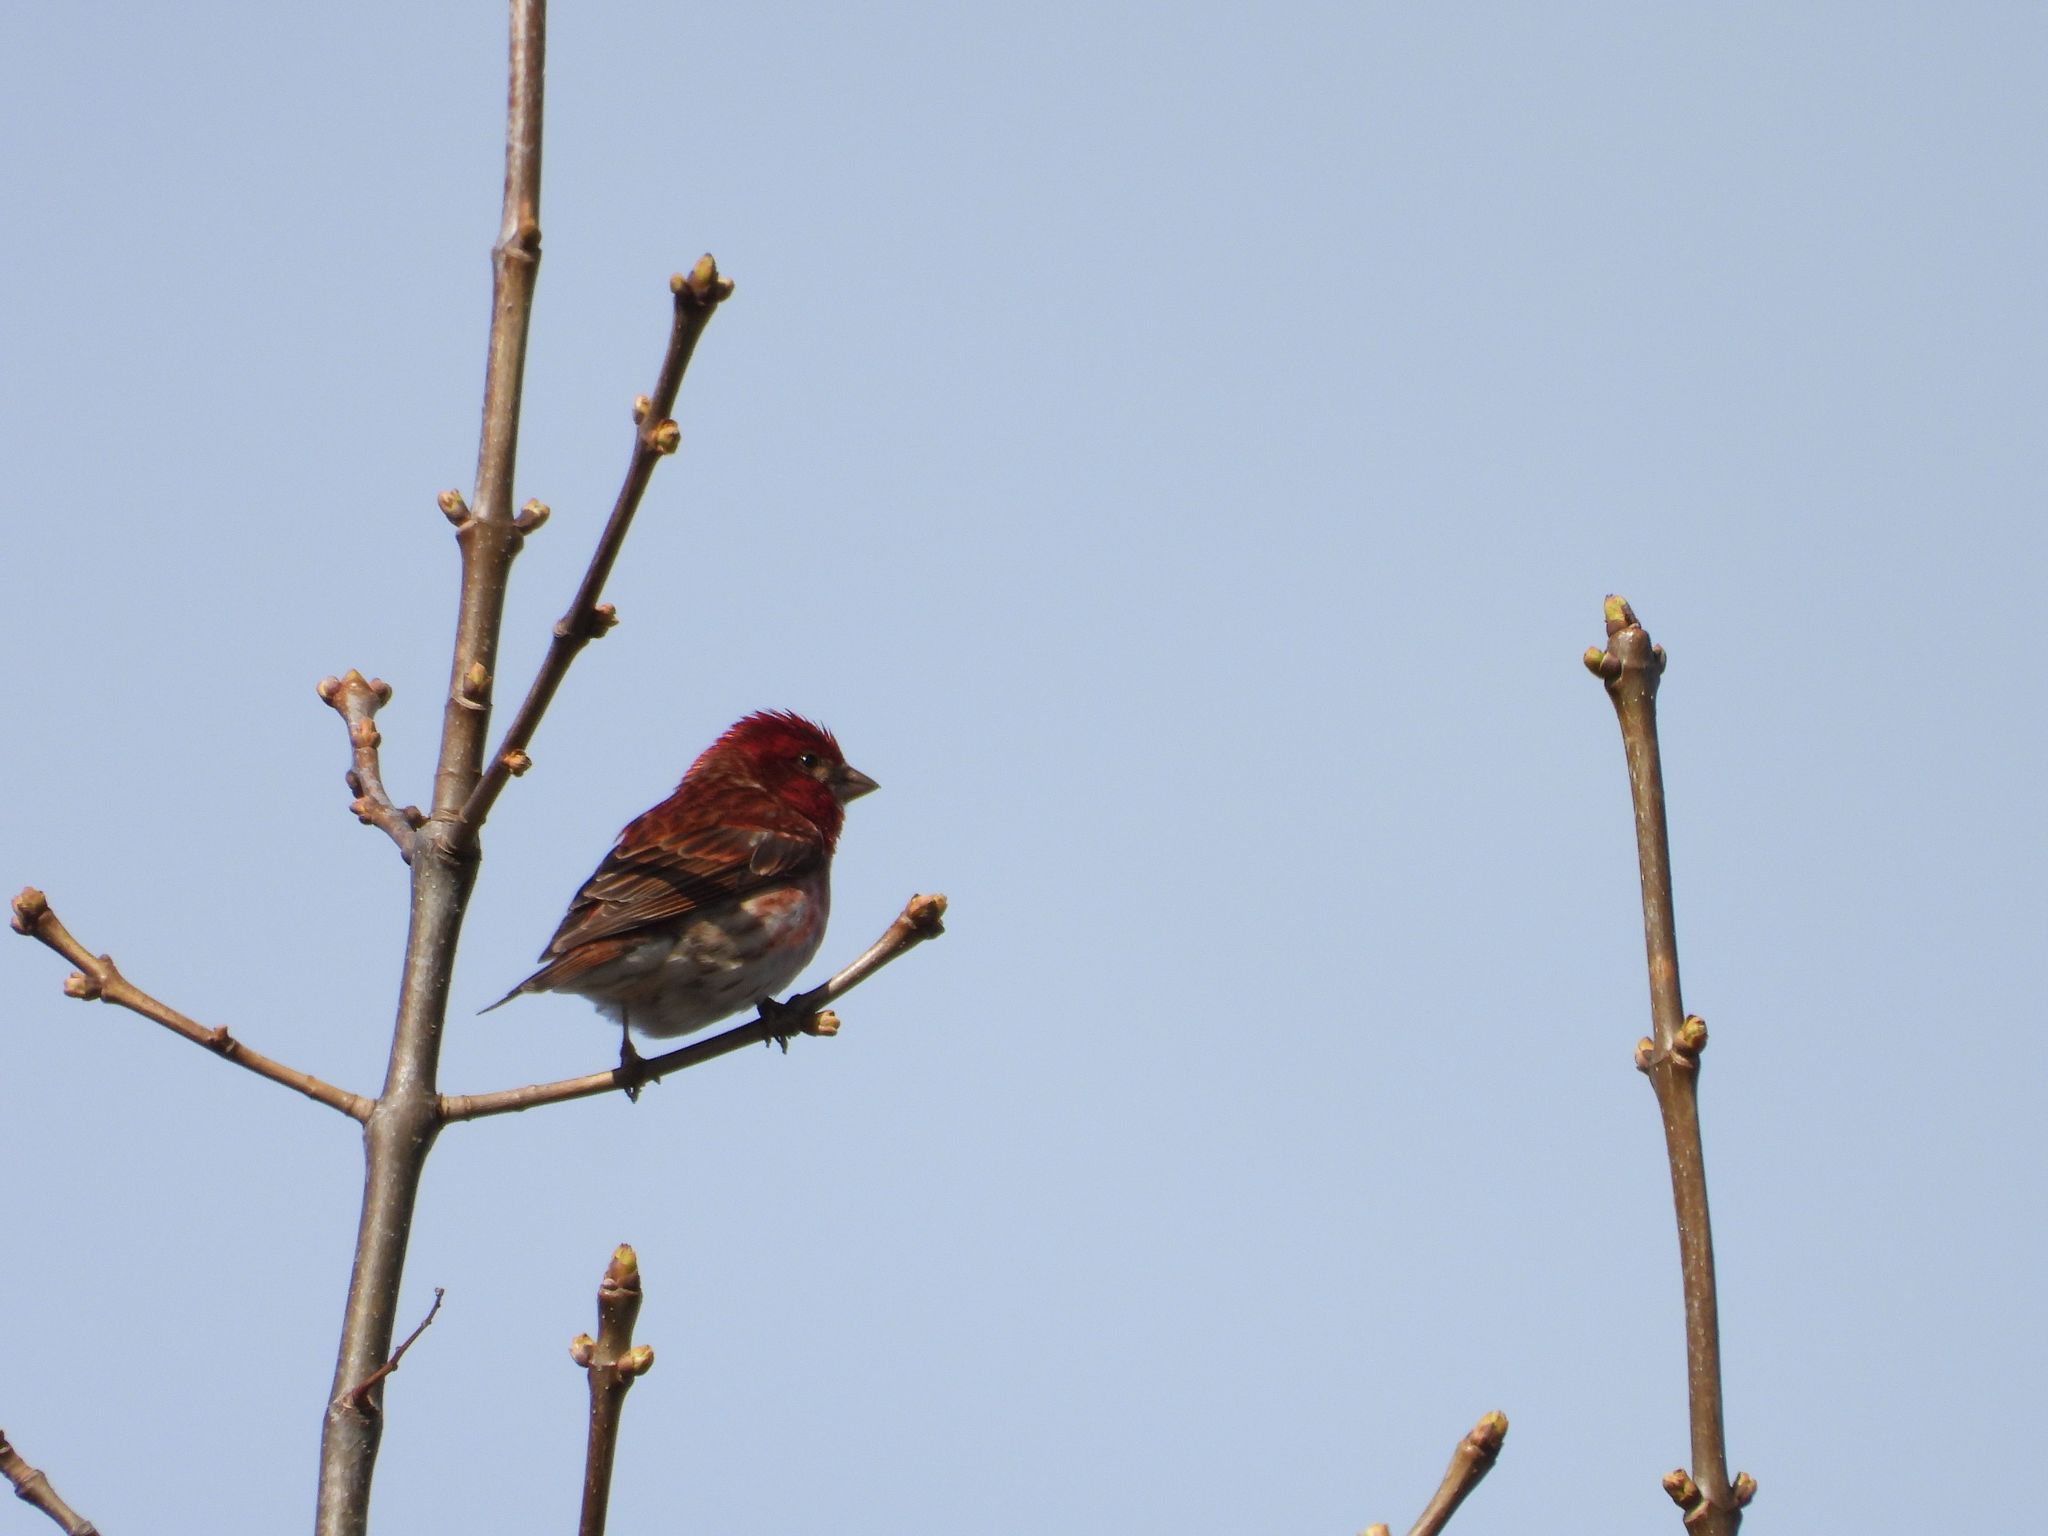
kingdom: Animalia
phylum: Chordata
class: Aves
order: Passeriformes
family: Fringillidae
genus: Haemorhous
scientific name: Haemorhous purpureus
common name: Purple finch
